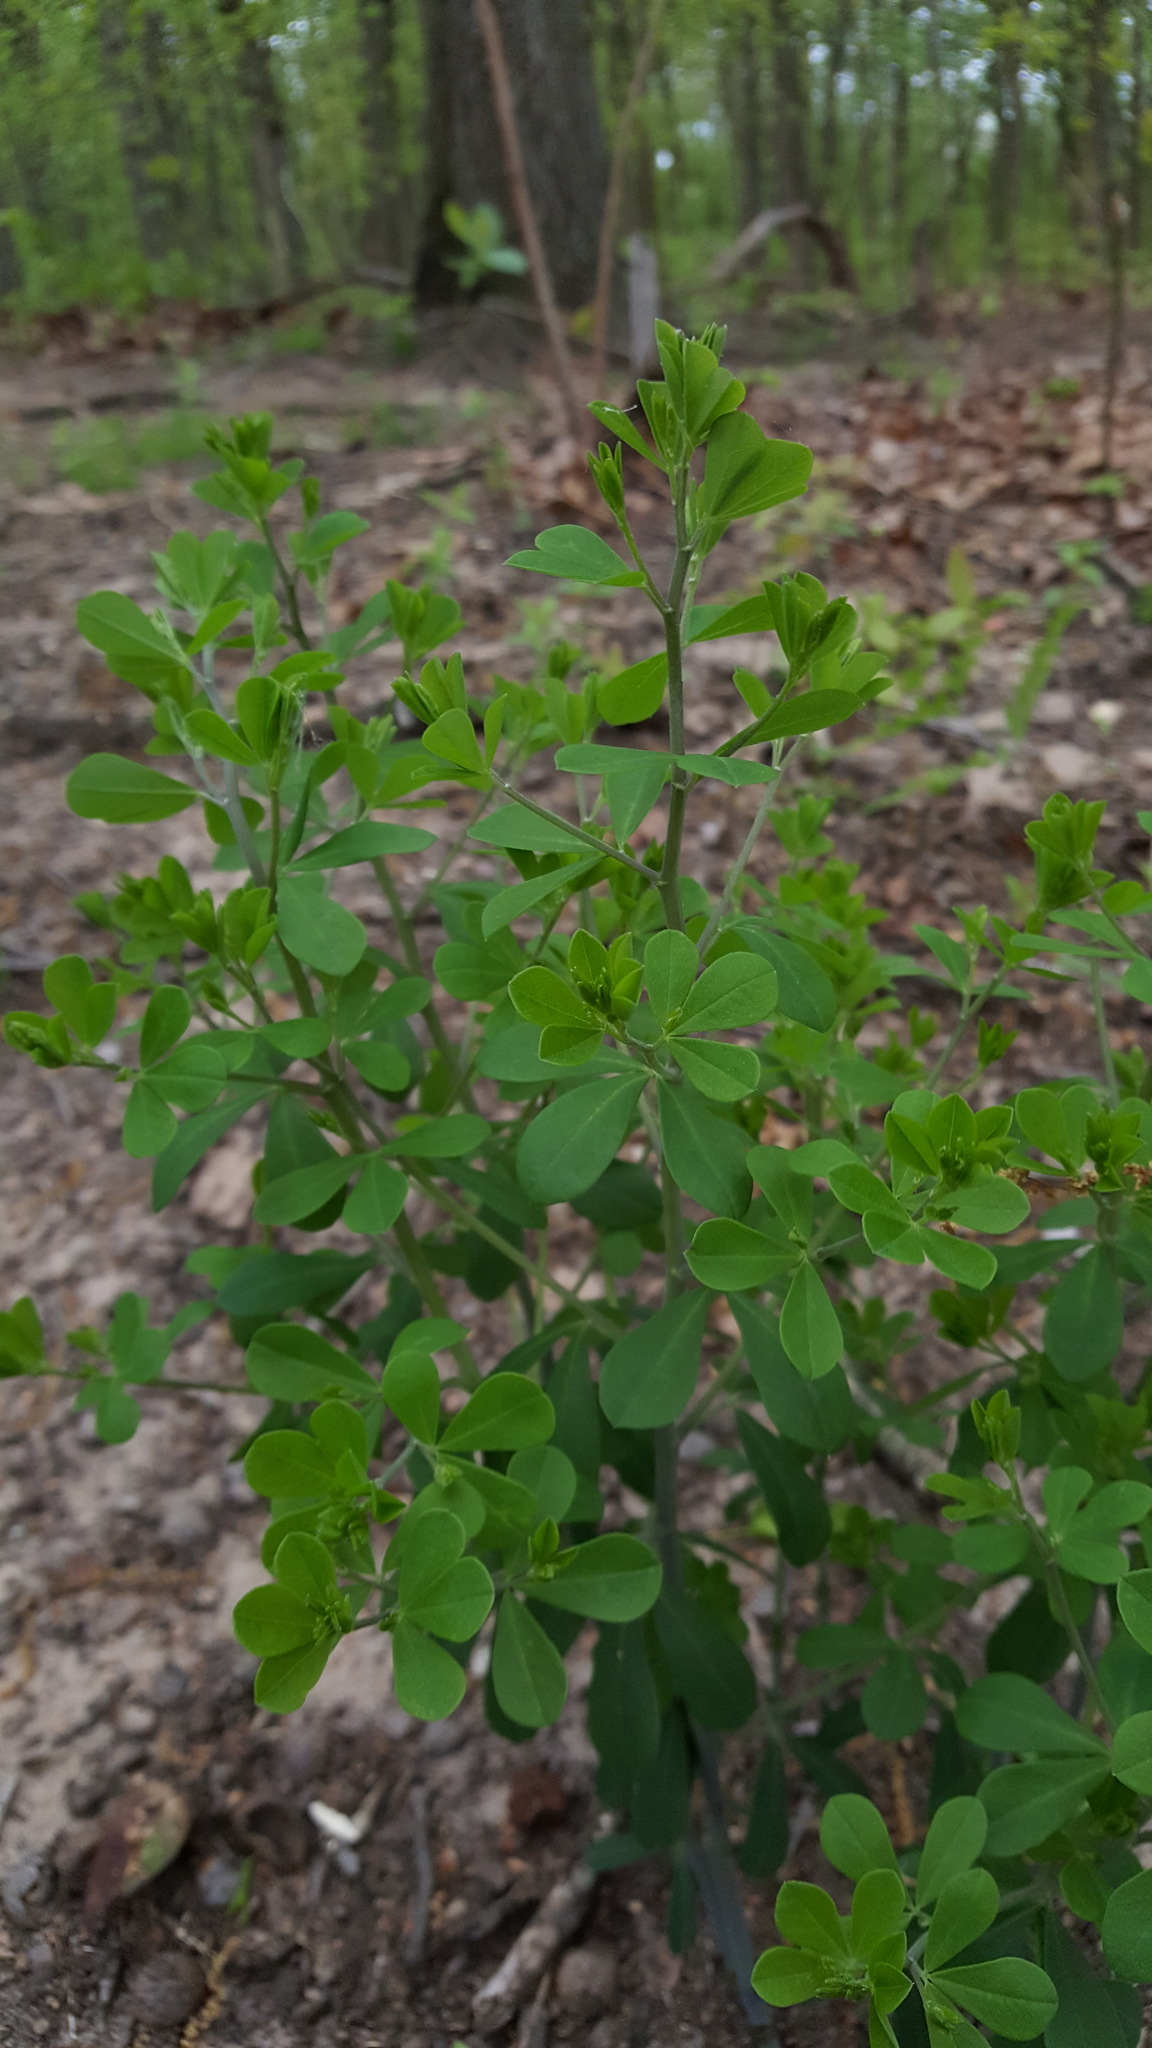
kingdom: Plantae
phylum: Tracheophyta
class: Magnoliopsida
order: Fabales
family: Fabaceae
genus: Baptisia
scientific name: Baptisia tinctoria
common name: Wild indigo
